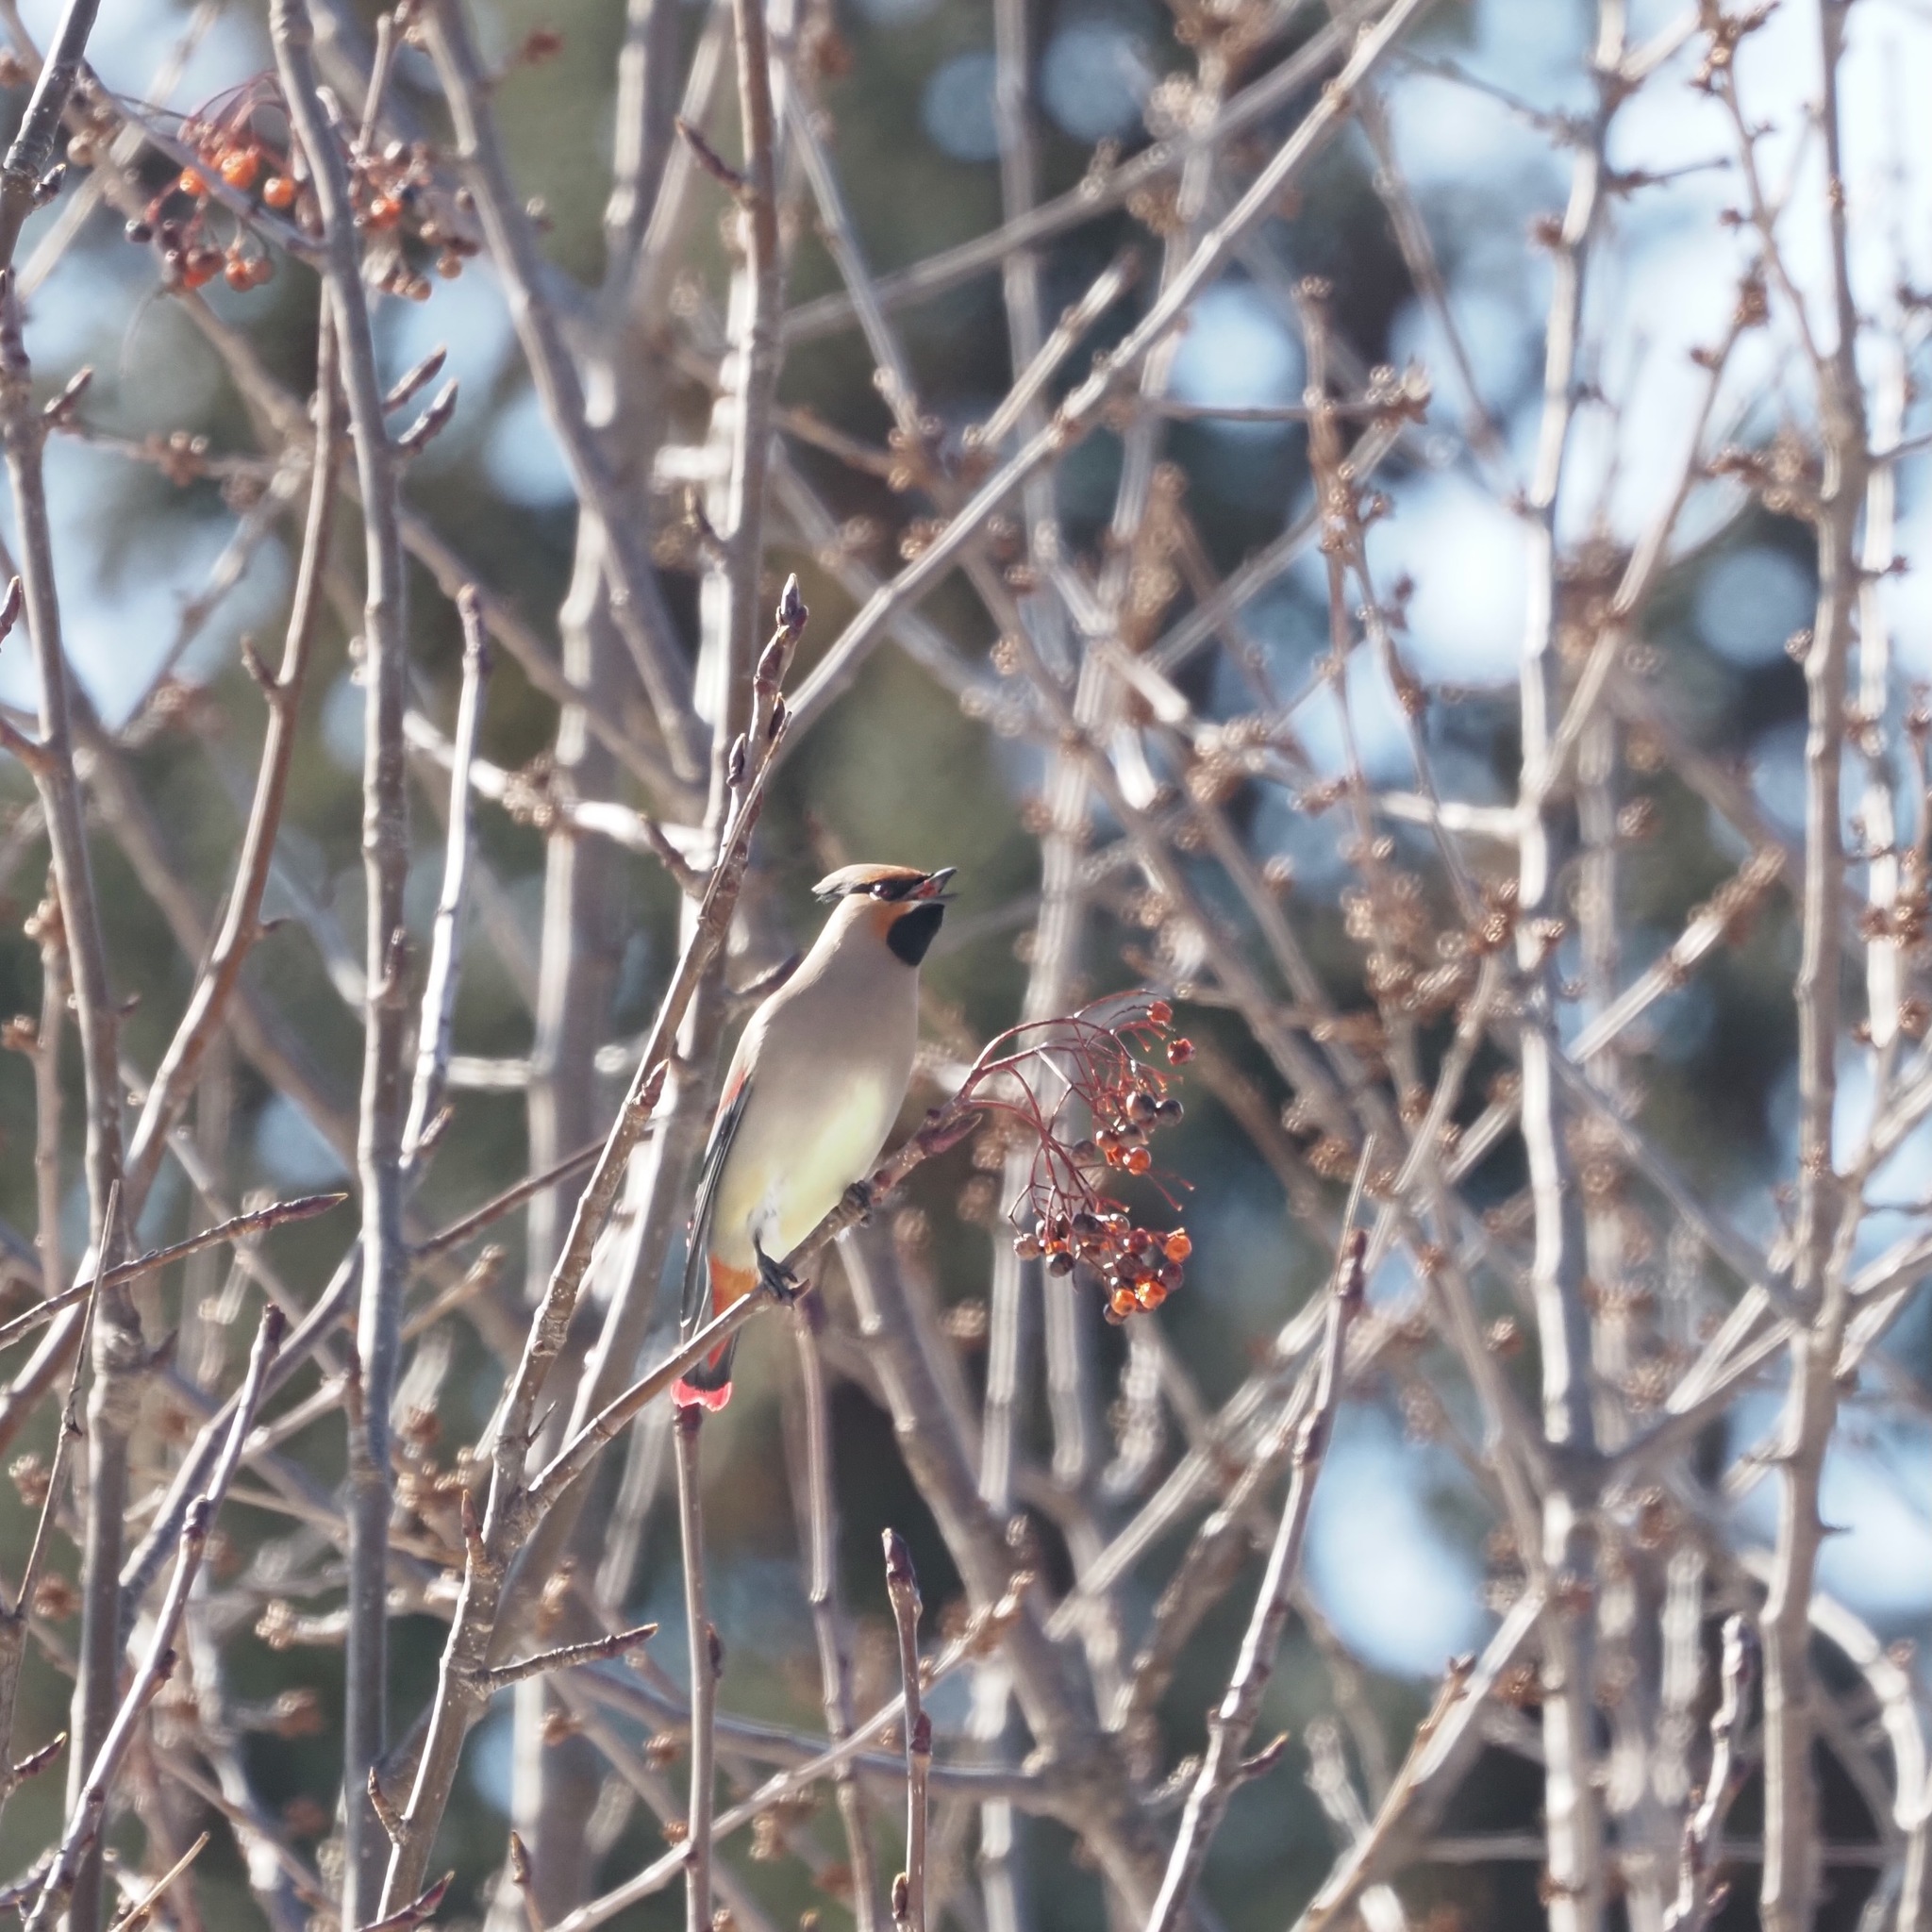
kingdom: Animalia
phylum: Chordata
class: Aves
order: Passeriformes
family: Bombycillidae
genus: Bombycilla
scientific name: Bombycilla japonica
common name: Japanese waxwing
